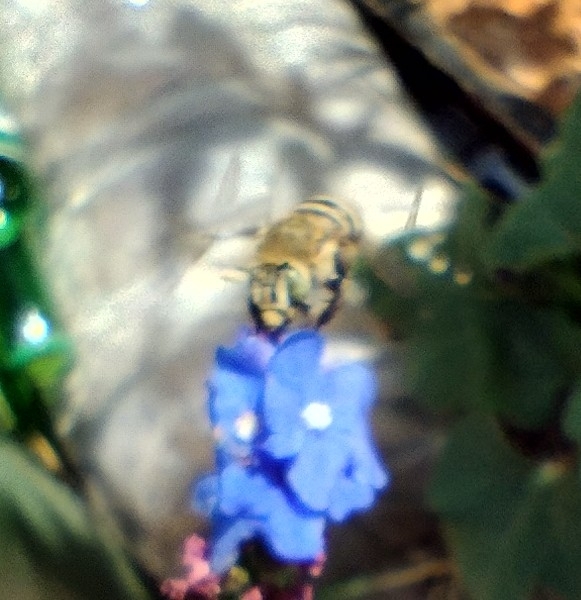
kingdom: Animalia
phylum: Arthropoda
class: Insecta
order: Hymenoptera
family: Apidae
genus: Amegilla
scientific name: Amegilla garrula
